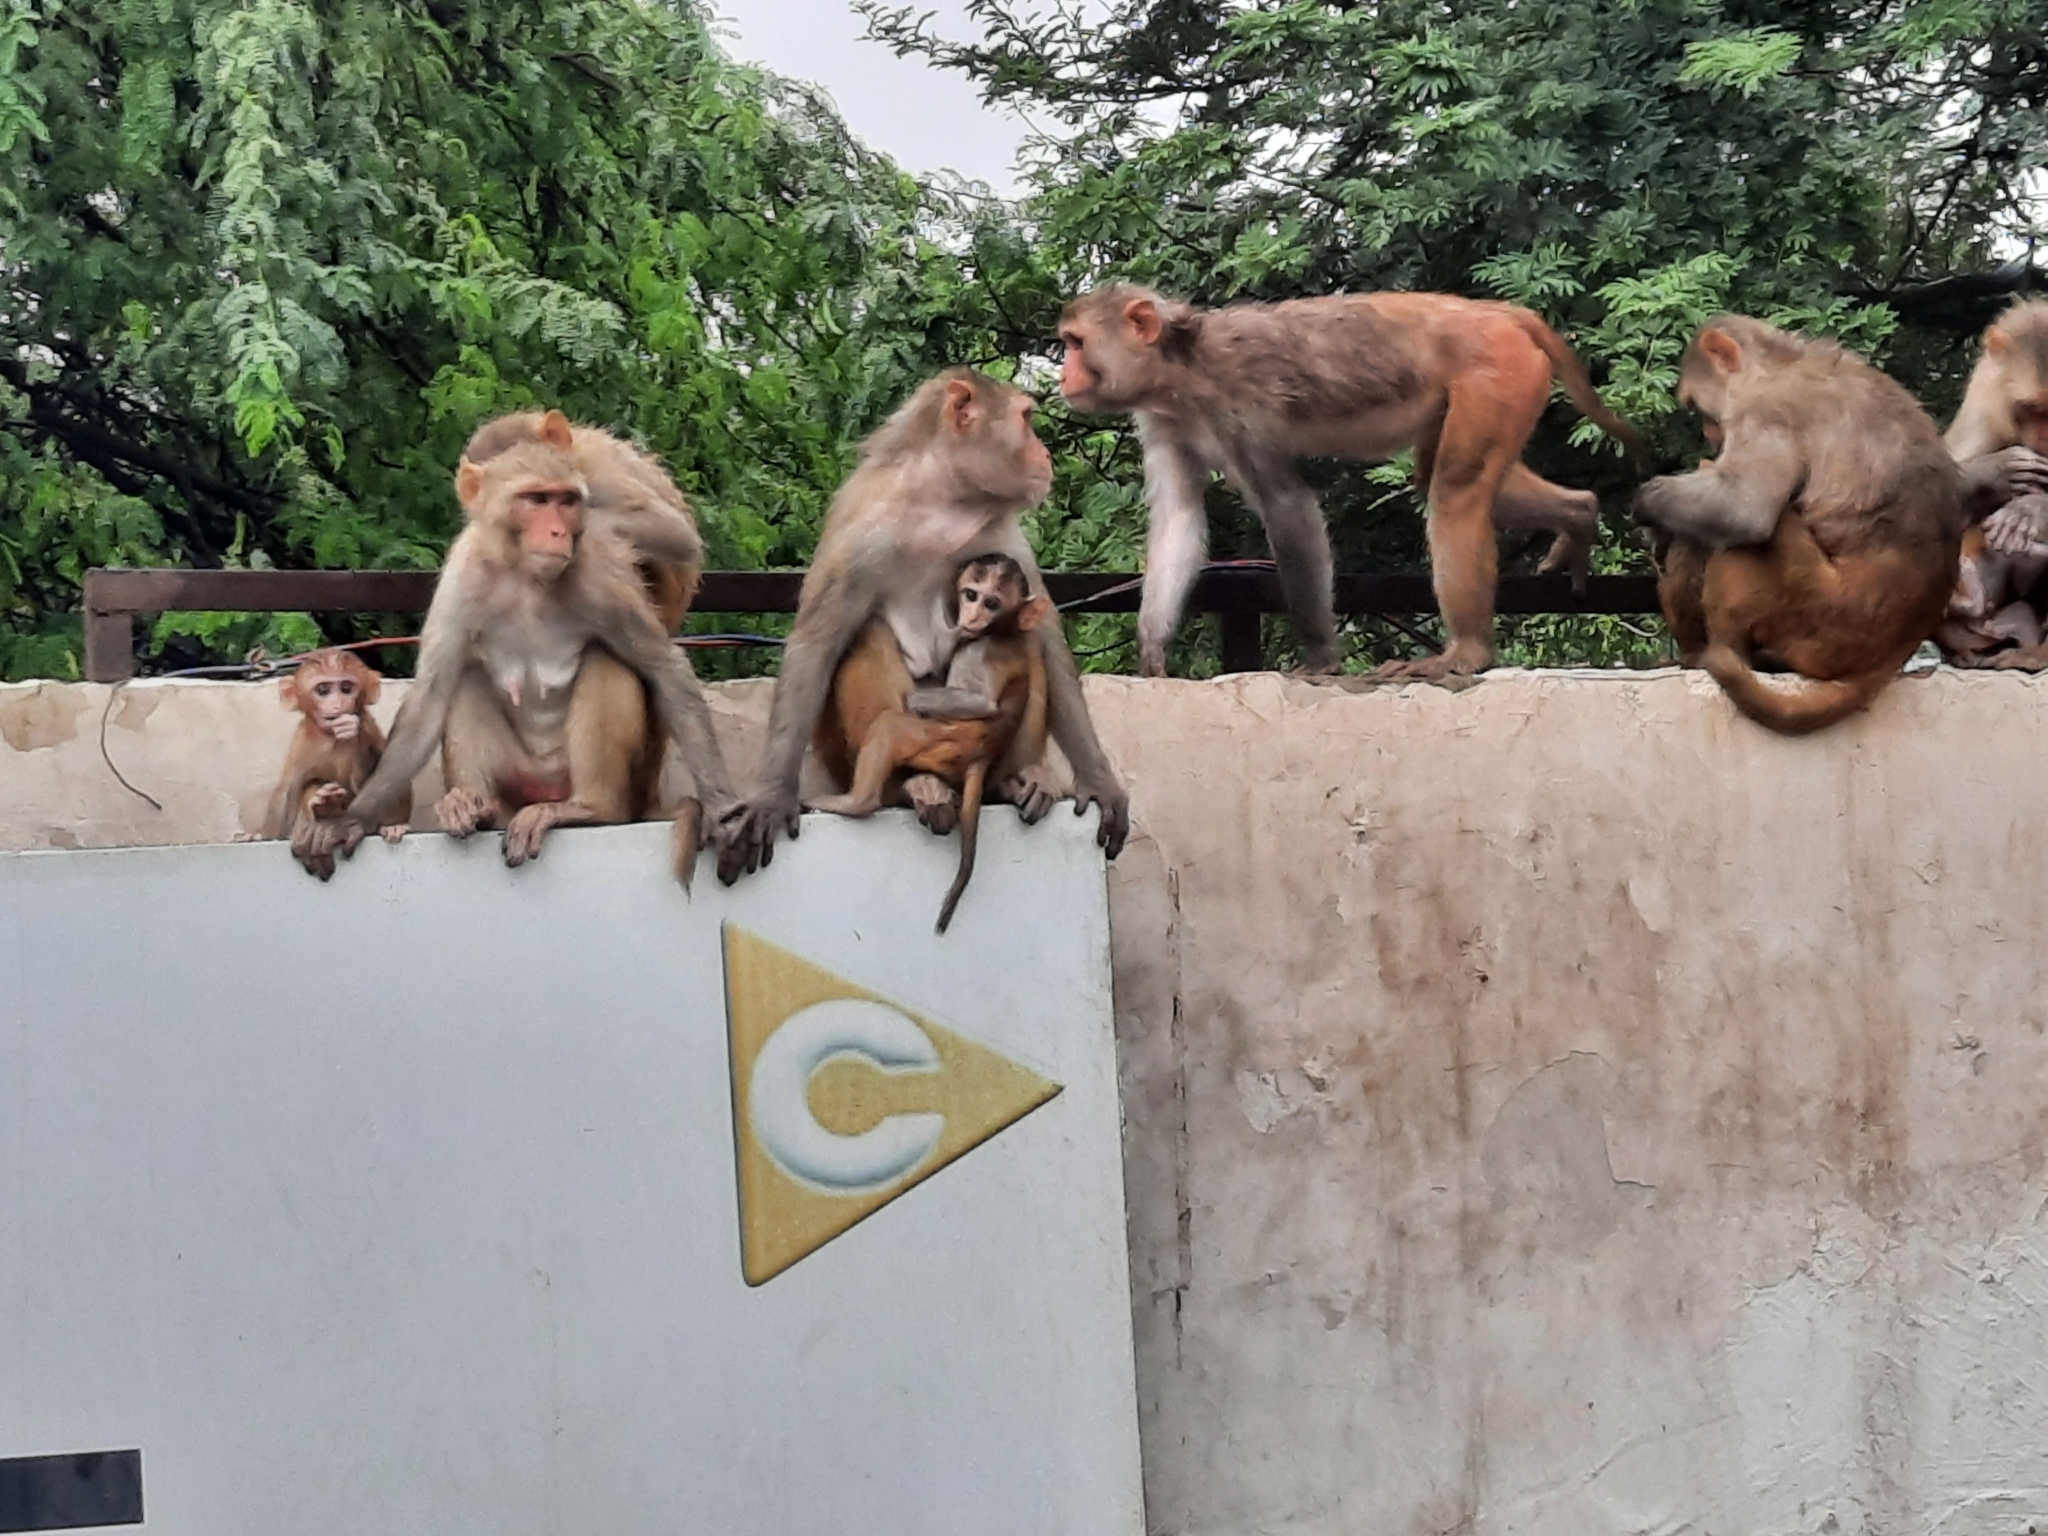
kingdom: Animalia
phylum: Chordata
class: Mammalia
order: Primates
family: Cercopithecidae
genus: Macaca
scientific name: Macaca mulatta
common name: Rhesus monkey
